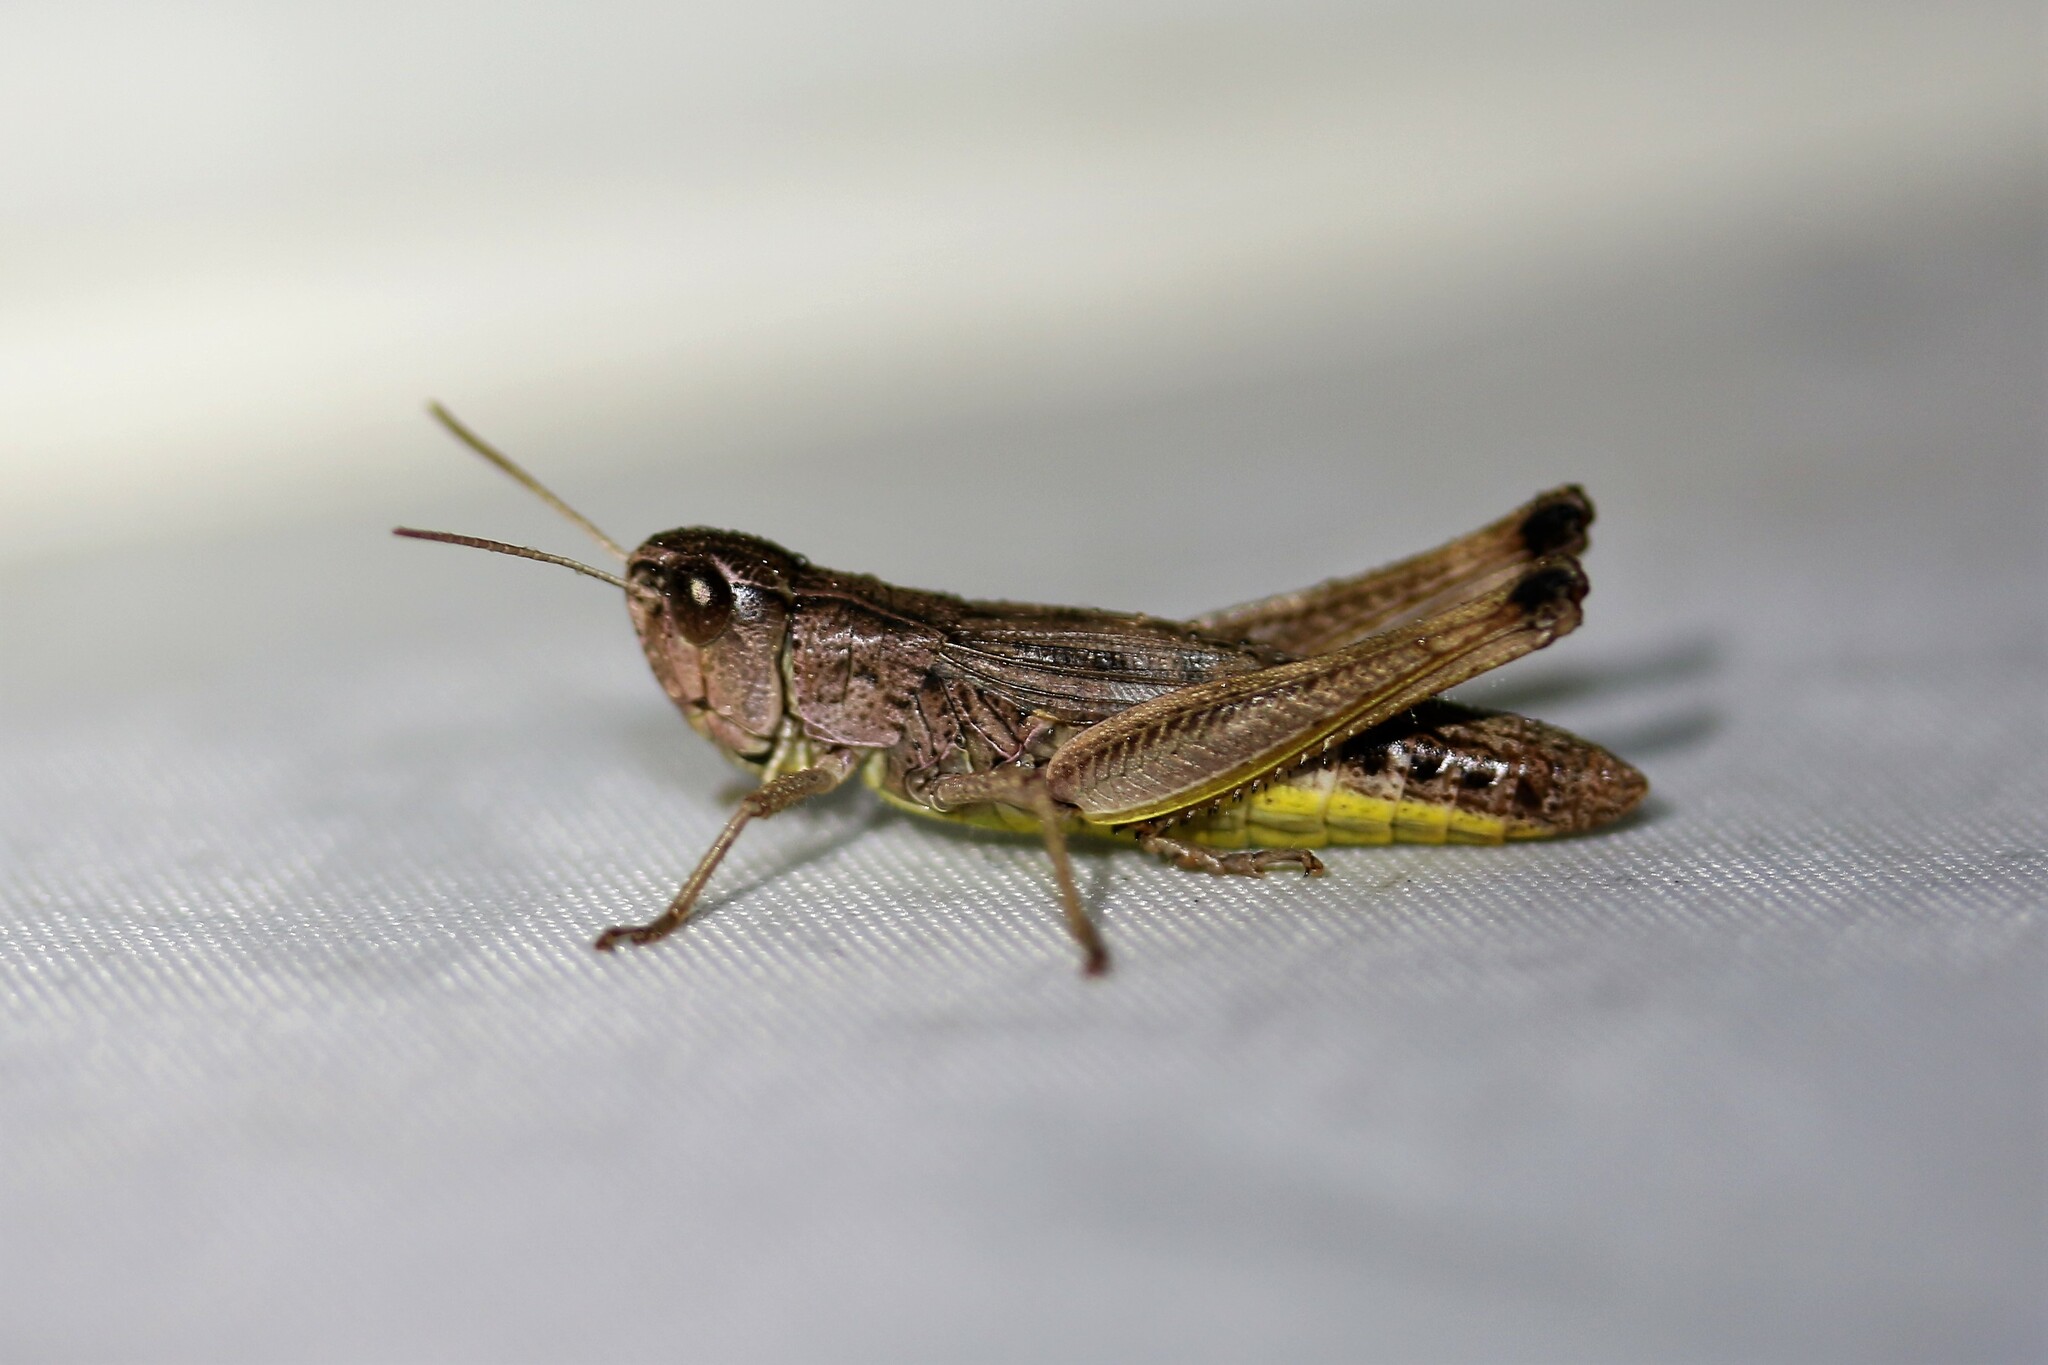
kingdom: Animalia
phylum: Arthropoda
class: Insecta
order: Orthoptera
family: Acrididae
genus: Pseudochorthippus
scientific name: Pseudochorthippus parallelus
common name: Meadow grasshopper
